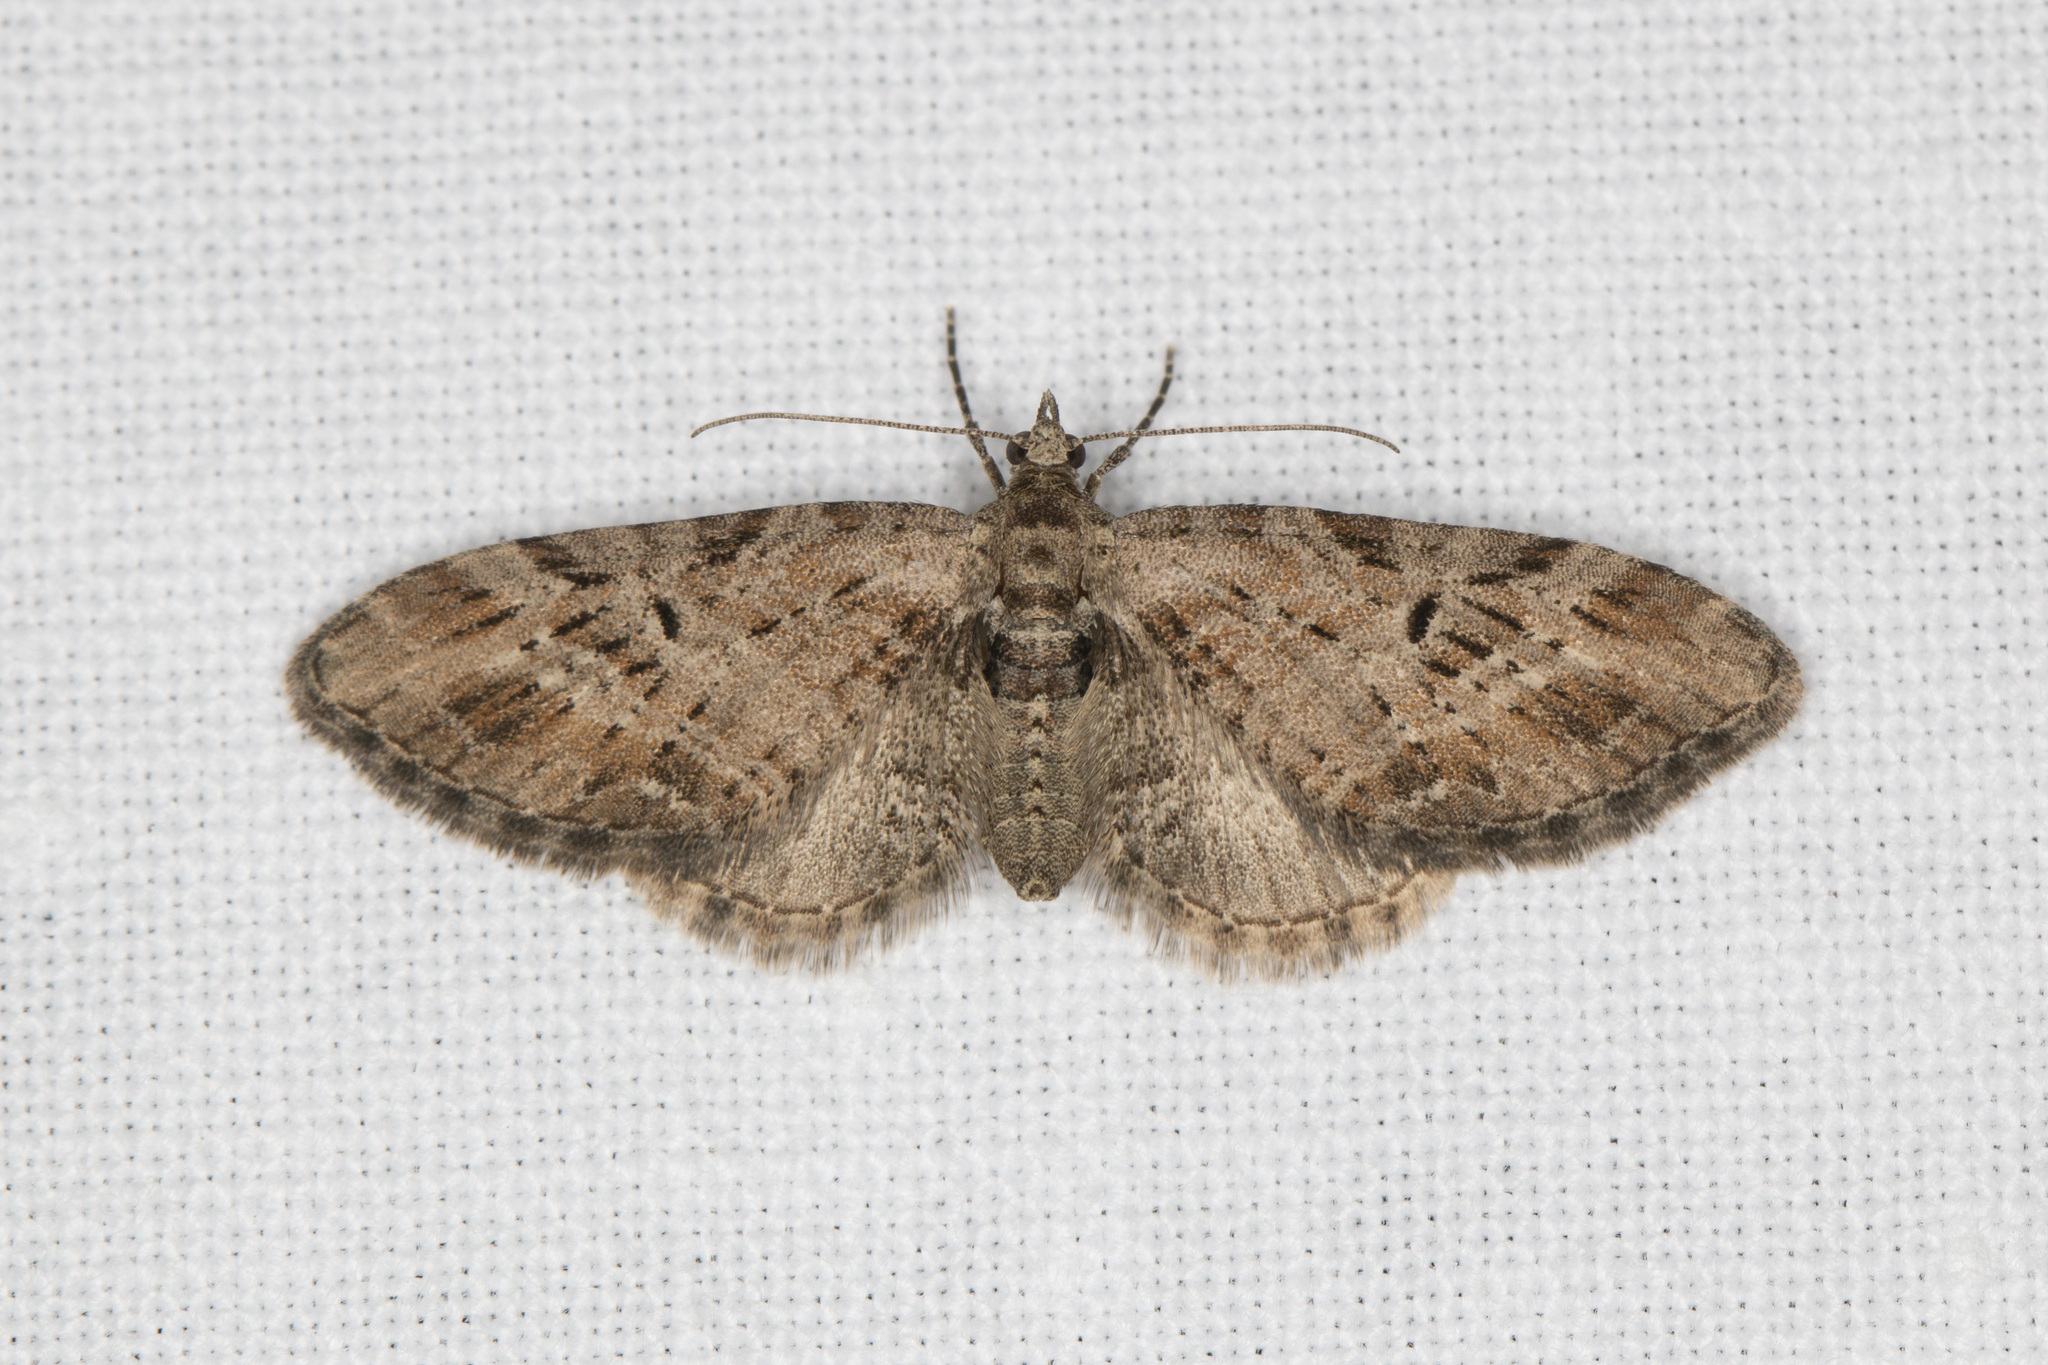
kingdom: Animalia
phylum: Arthropoda
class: Insecta
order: Lepidoptera
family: Geometridae
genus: Eupithecia
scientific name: Eupithecia exiguata
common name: Mottled pug
